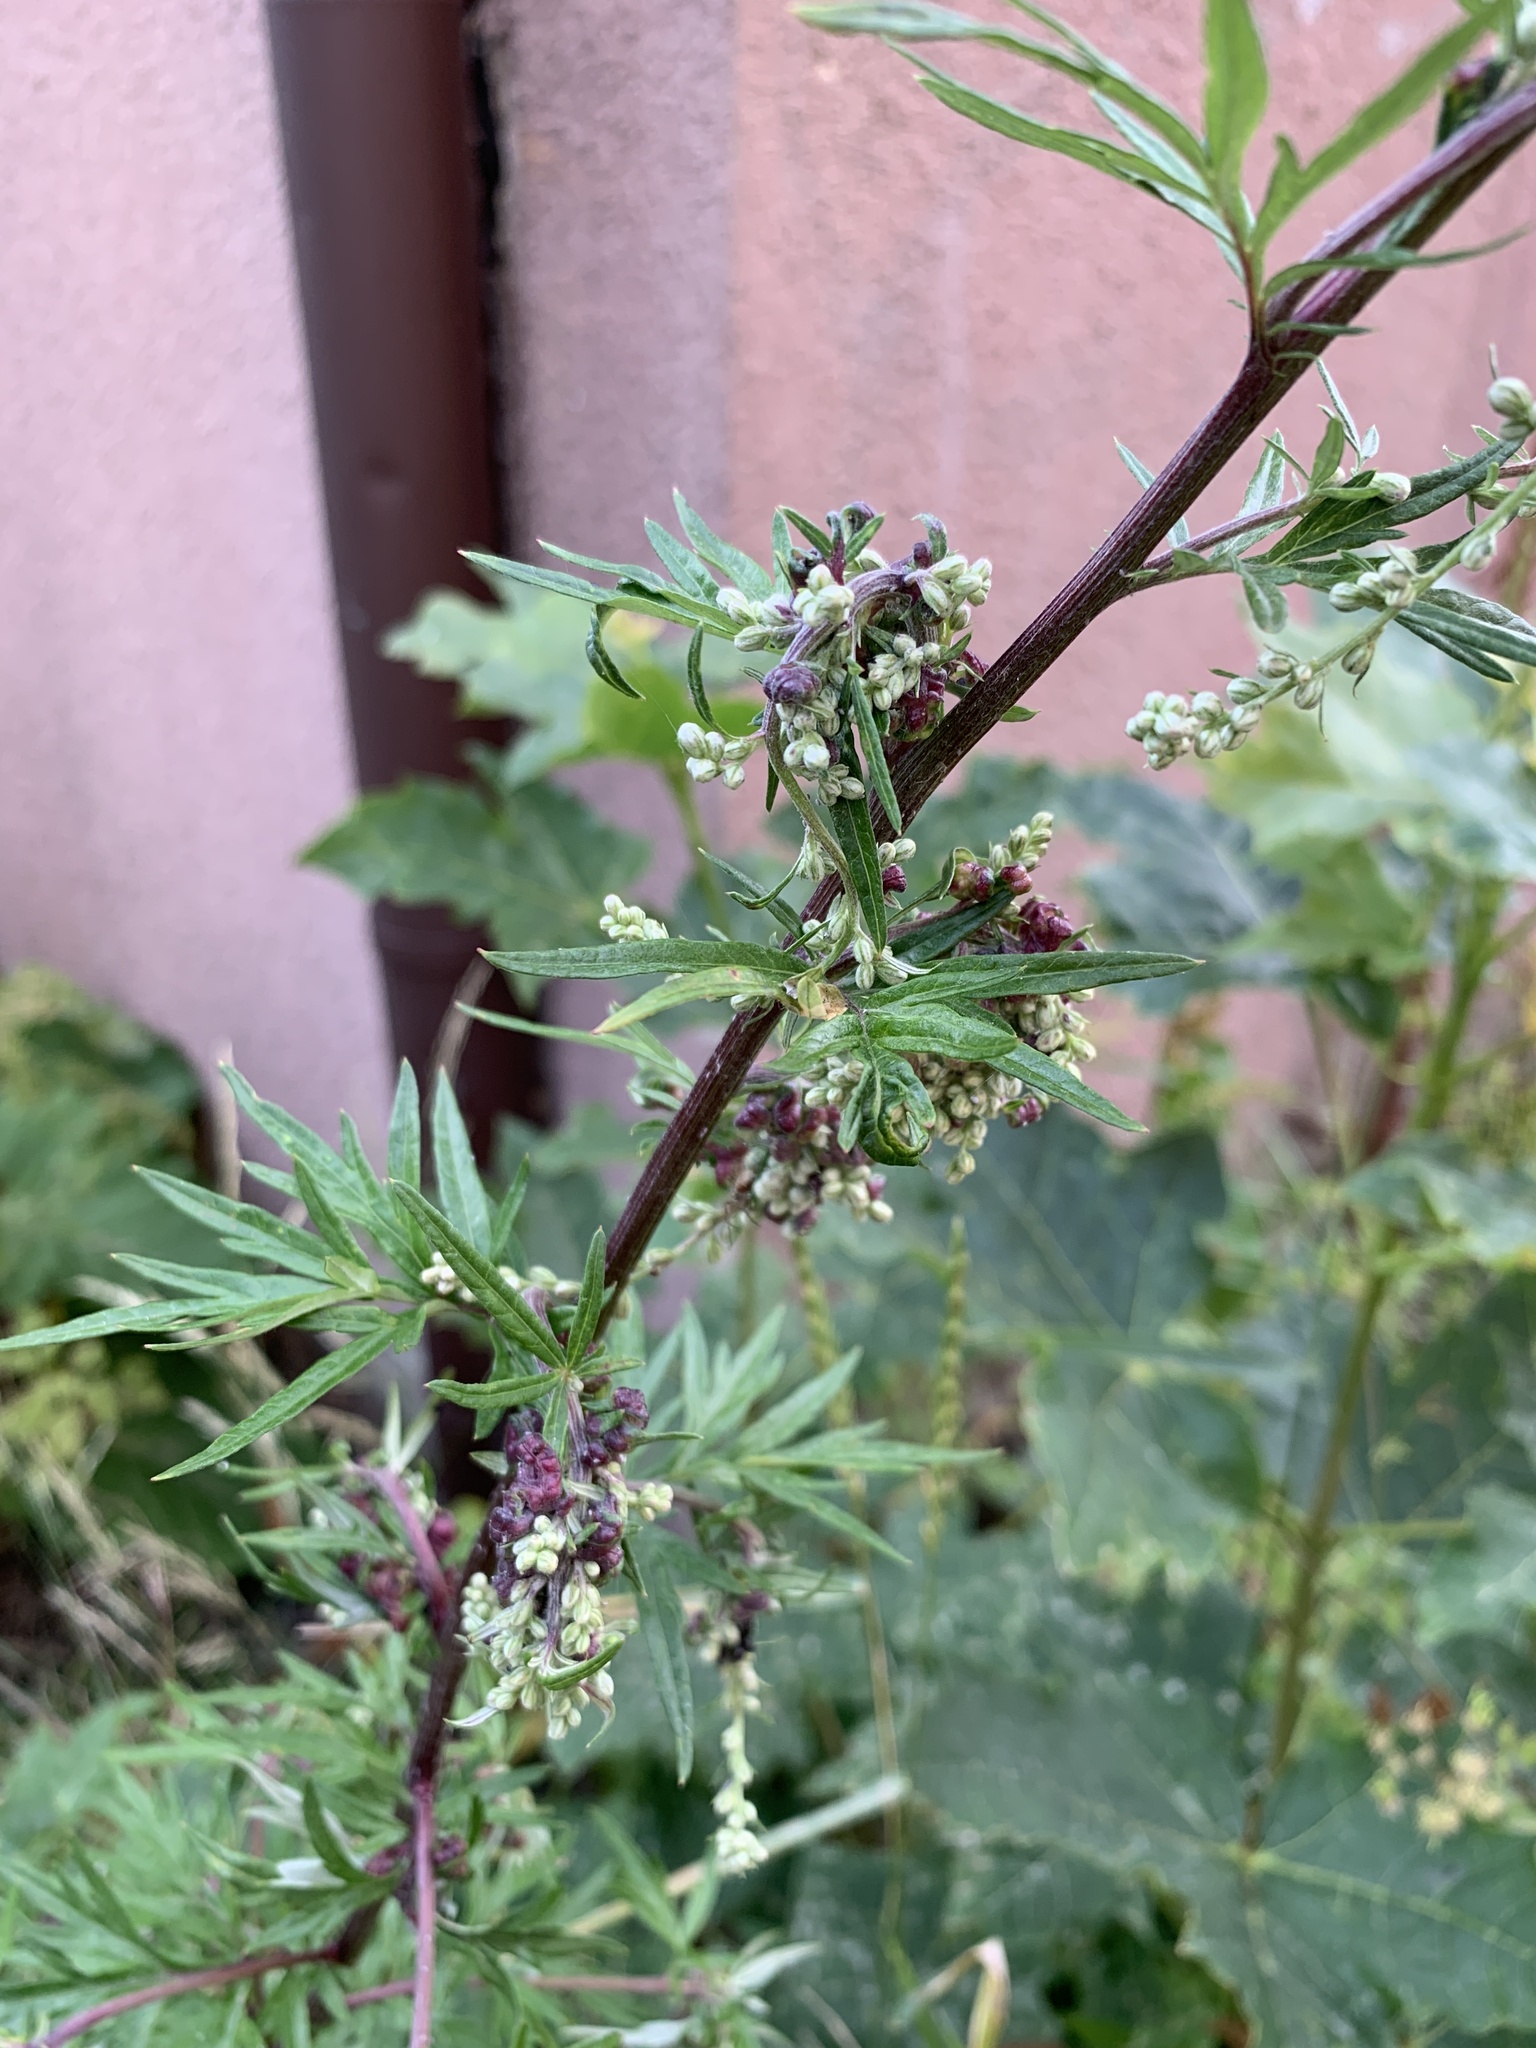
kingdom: Plantae
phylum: Tracheophyta
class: Magnoliopsida
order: Asterales
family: Asteraceae
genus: Artemisia
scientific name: Artemisia vulgaris
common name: Mugwort
